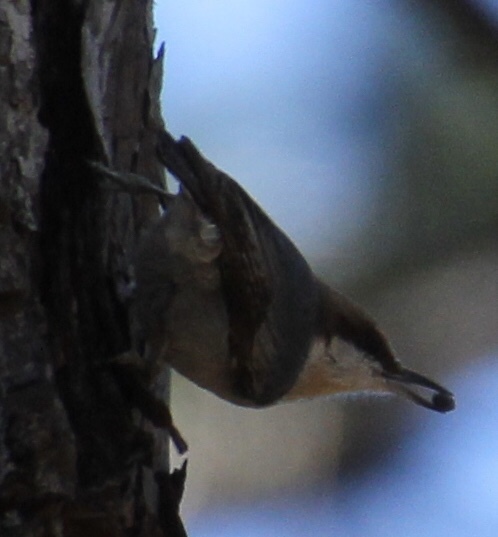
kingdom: Animalia
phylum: Chordata
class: Aves
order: Passeriformes
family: Sittidae
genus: Sitta
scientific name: Sitta pusilla
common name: Brown-headed nuthatch
